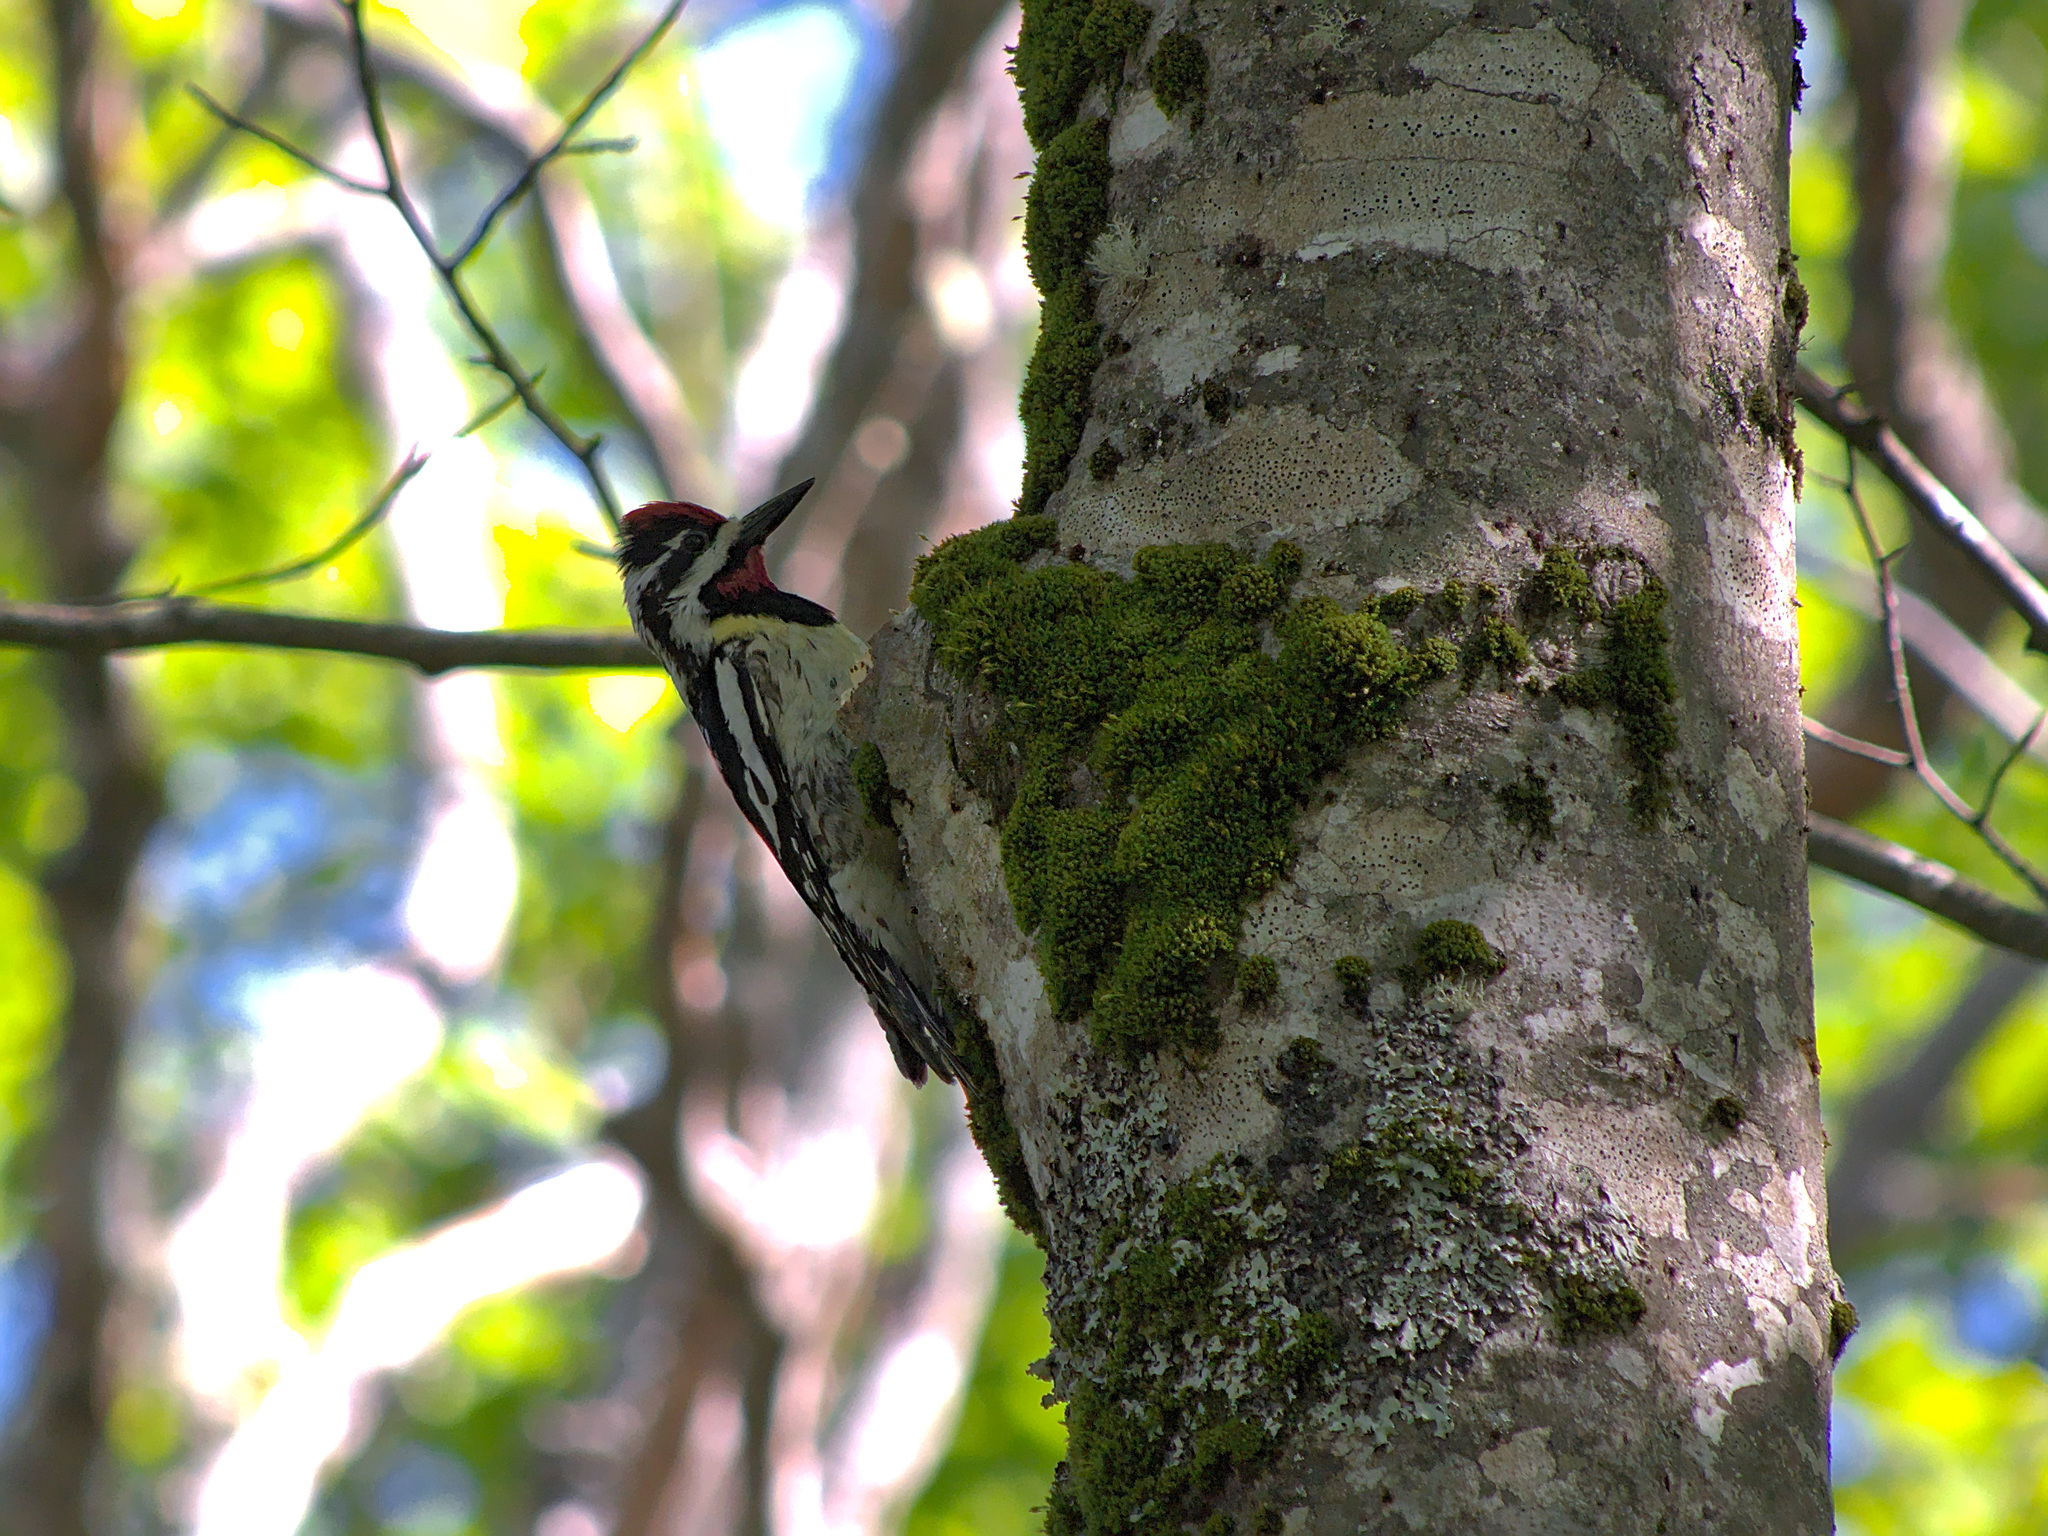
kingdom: Animalia
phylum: Chordata
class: Aves
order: Piciformes
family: Picidae
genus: Sphyrapicus
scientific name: Sphyrapicus varius
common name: Yellow-bellied sapsucker
